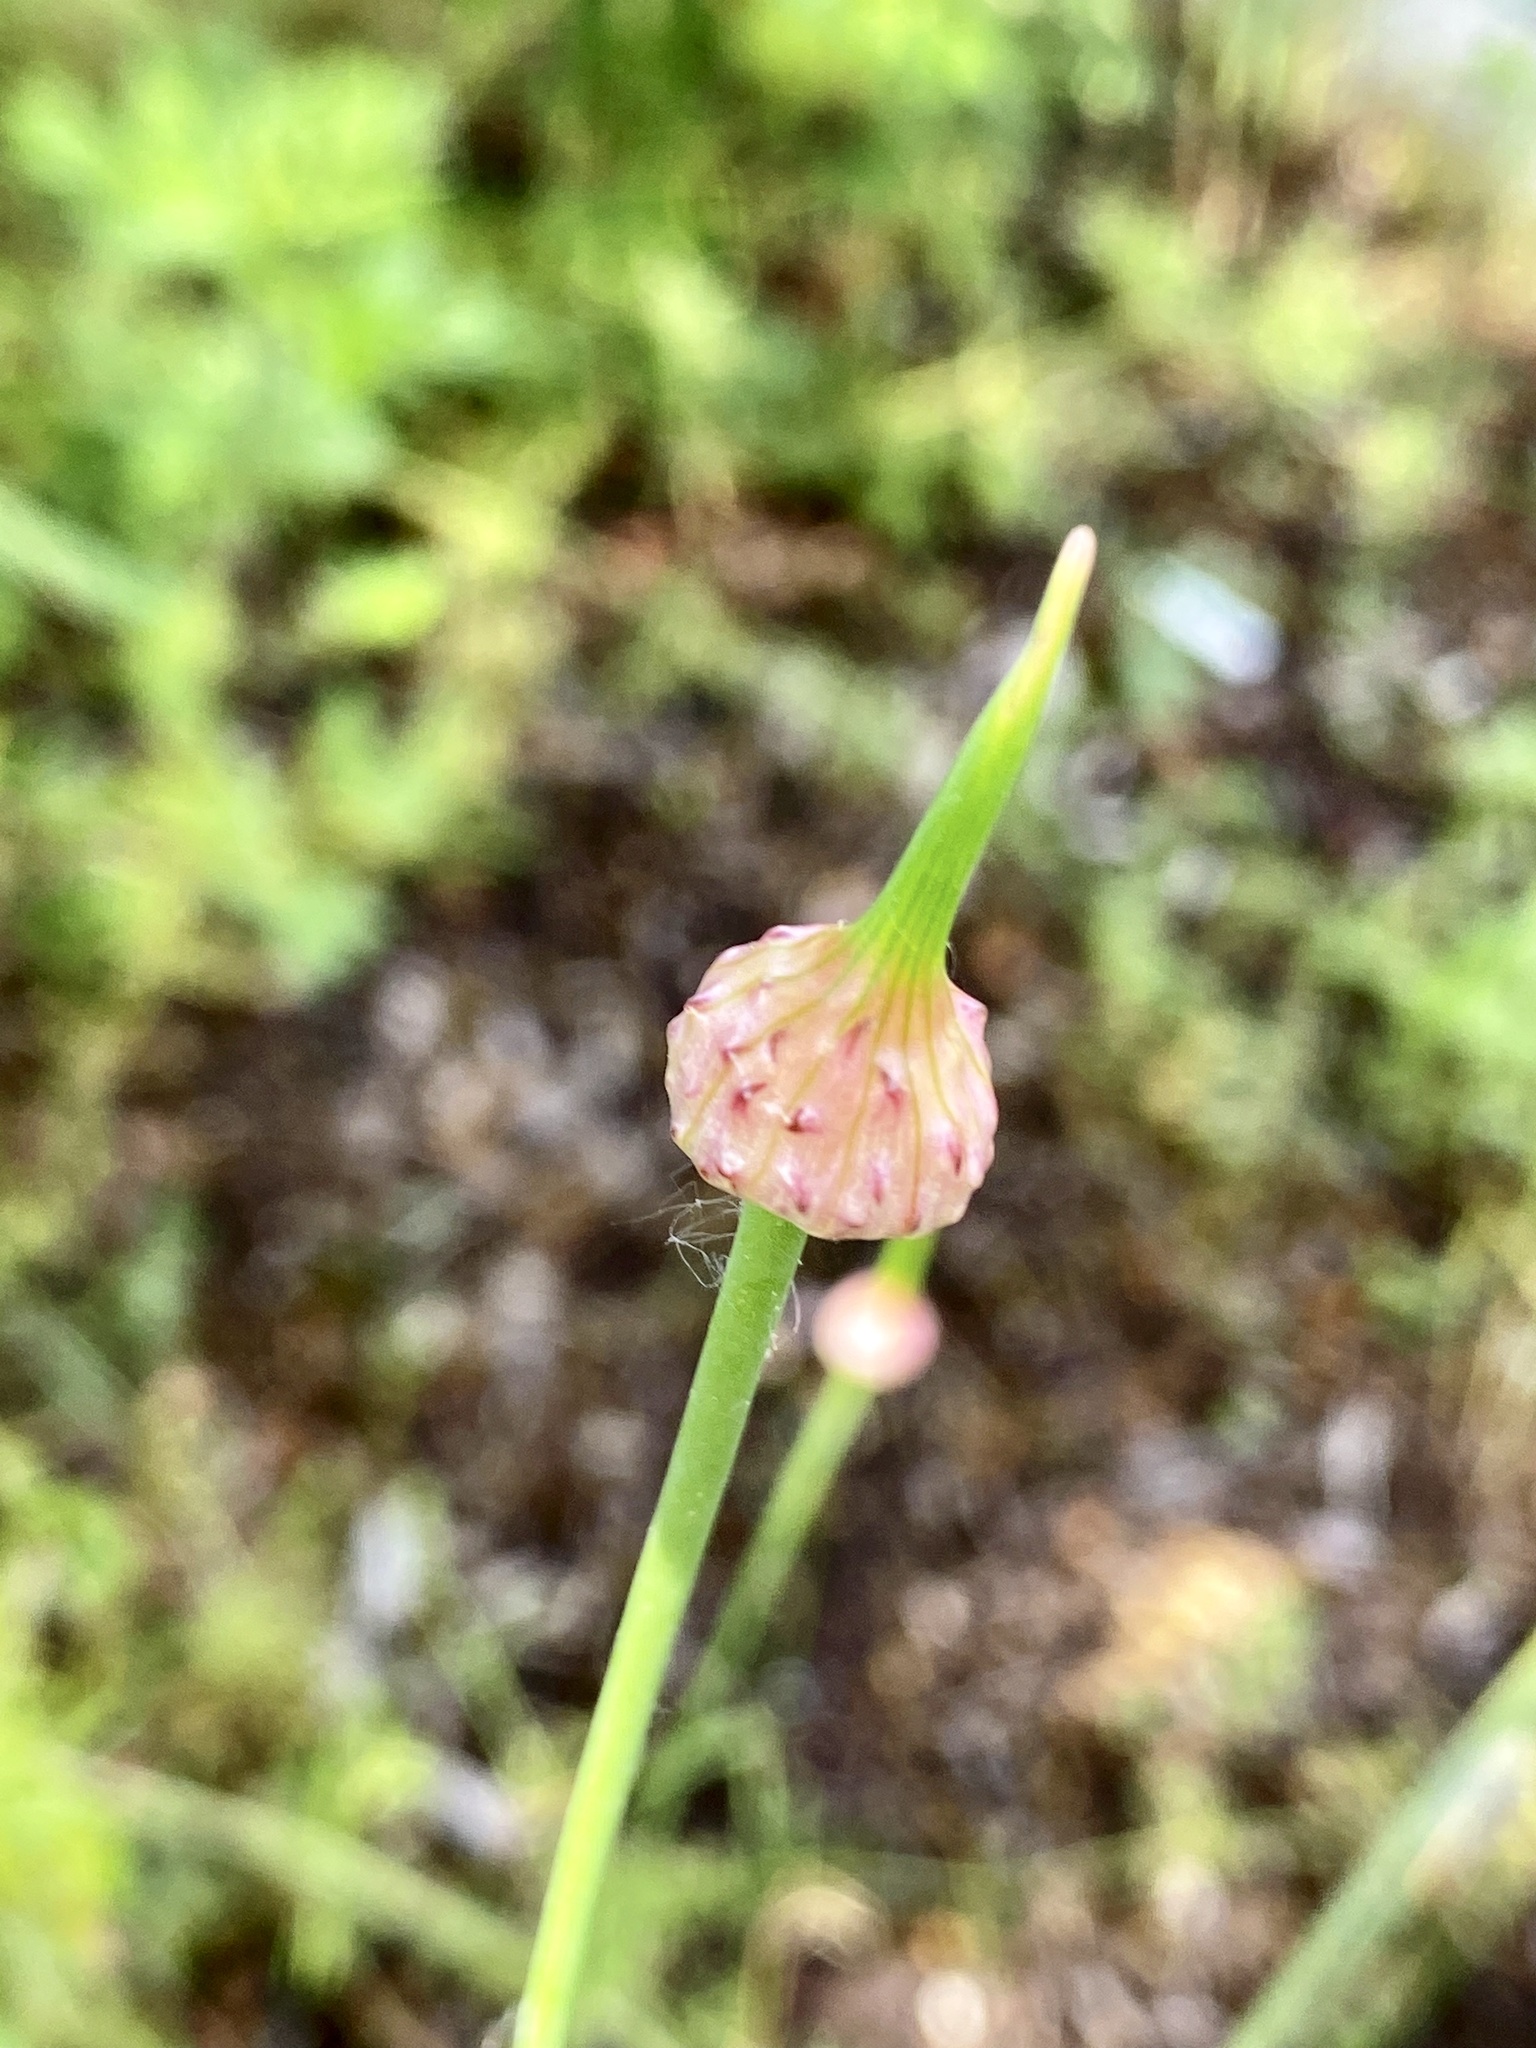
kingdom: Plantae
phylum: Tracheophyta
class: Liliopsida
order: Asparagales
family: Amaryllidaceae
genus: Allium
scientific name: Allium vineale
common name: Crow garlic
